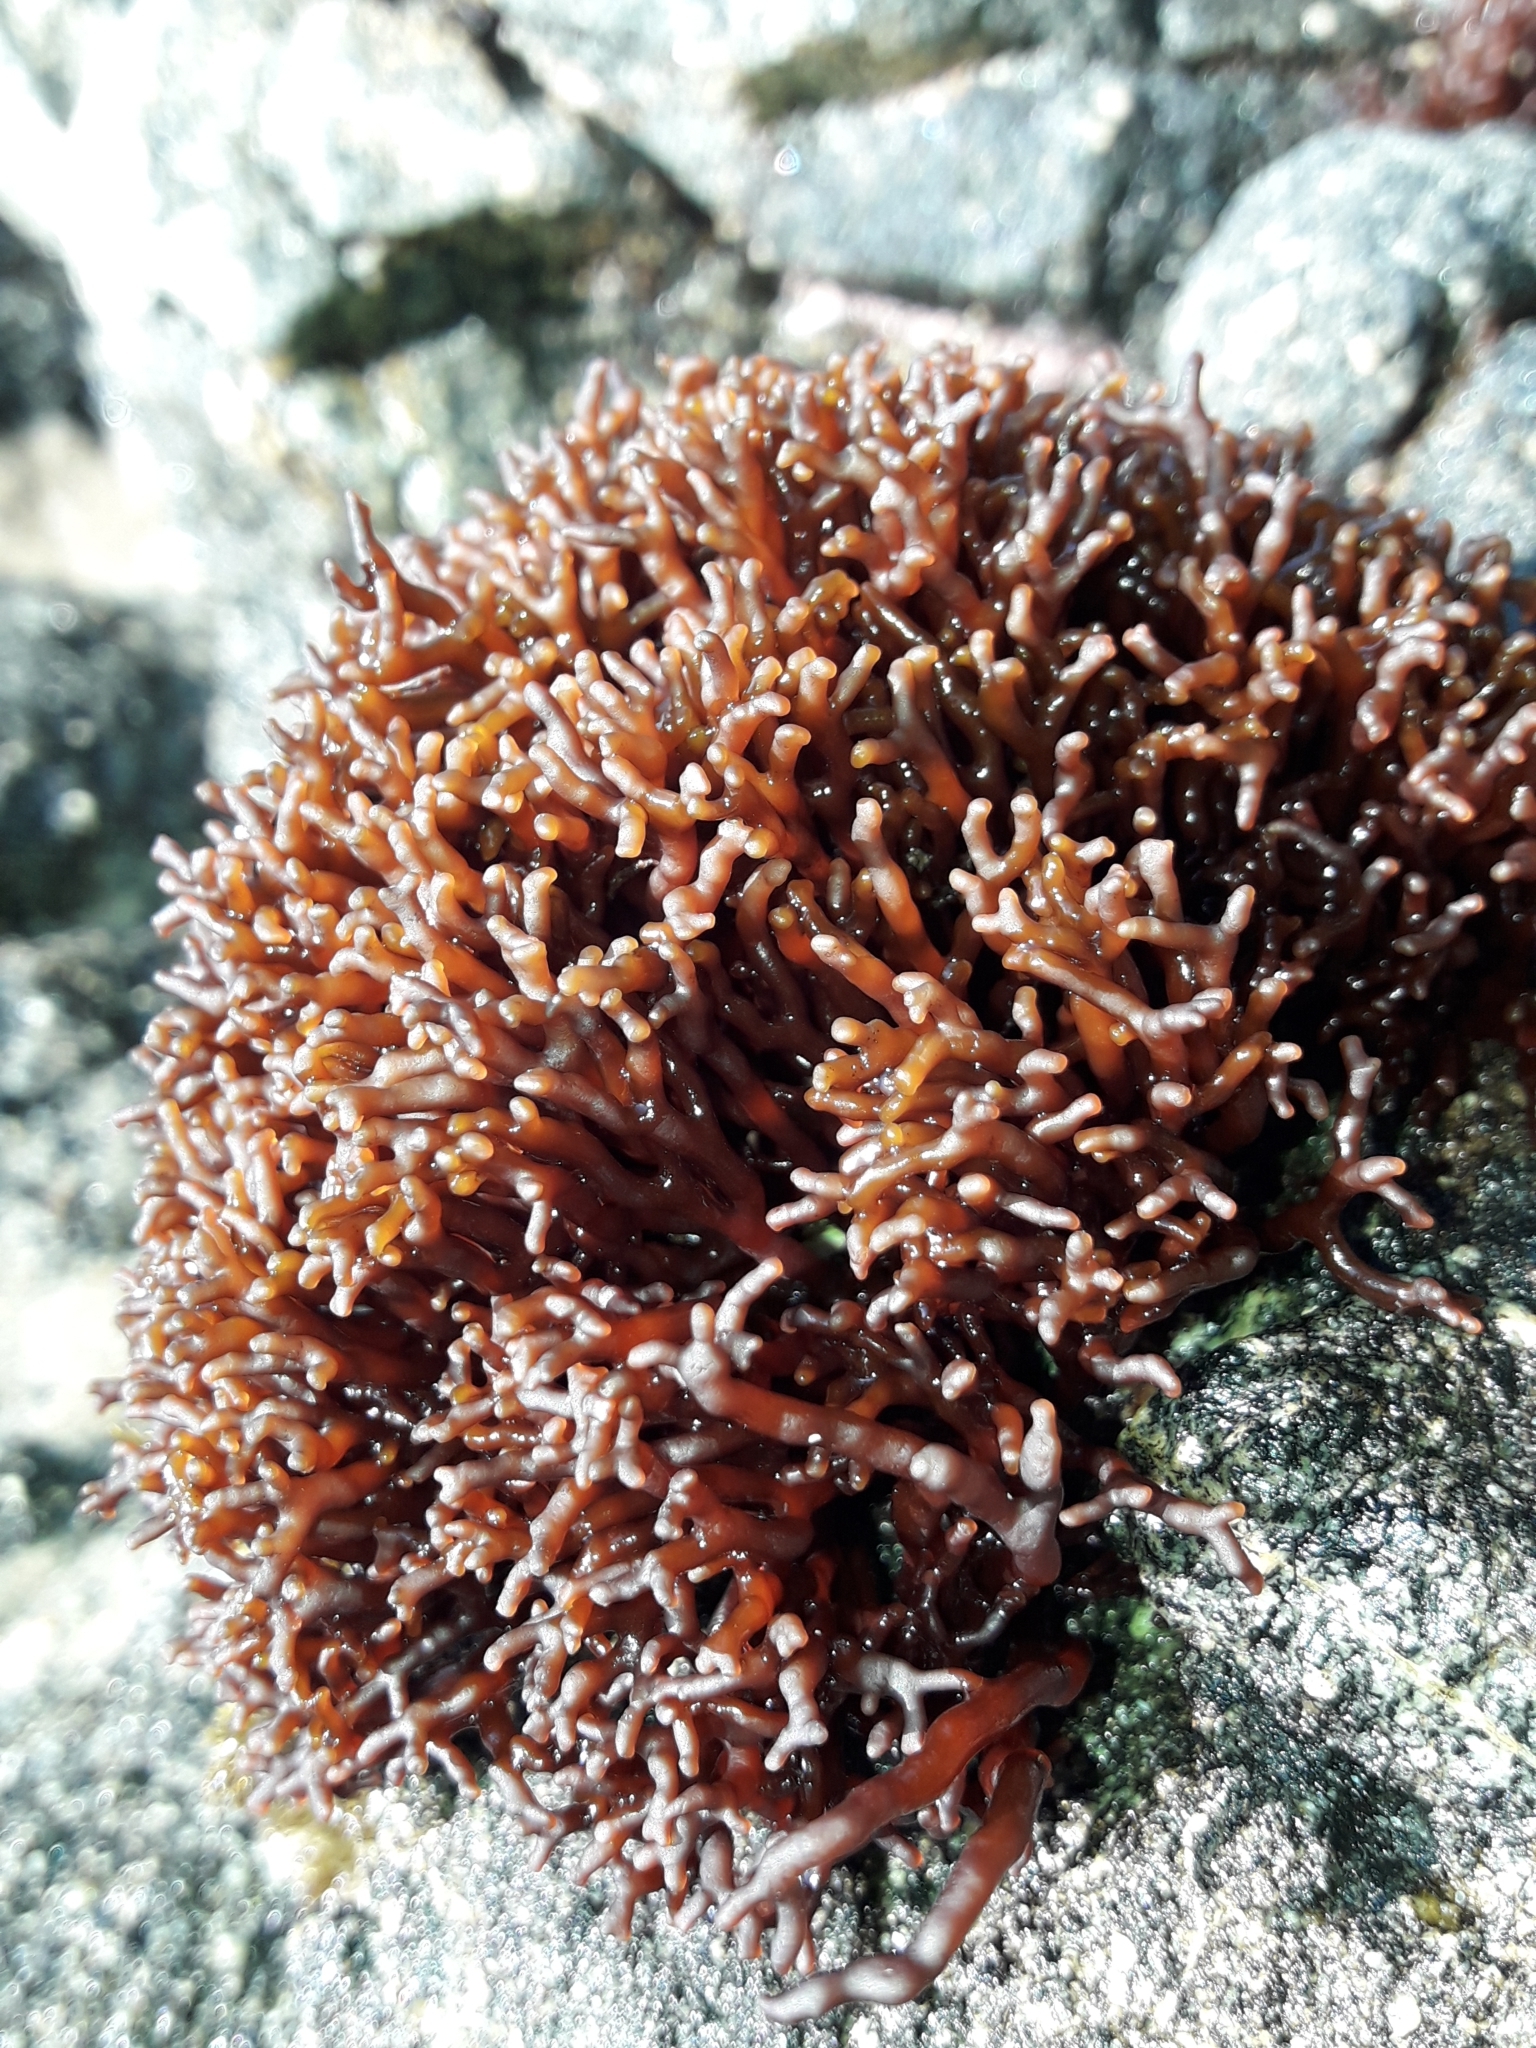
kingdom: Plantae
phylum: Rhodophyta
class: Florideophyceae
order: Hildenbrandiales
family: Hildenbrandiaceae
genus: Apophlaea
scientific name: Apophlaea lyallii
